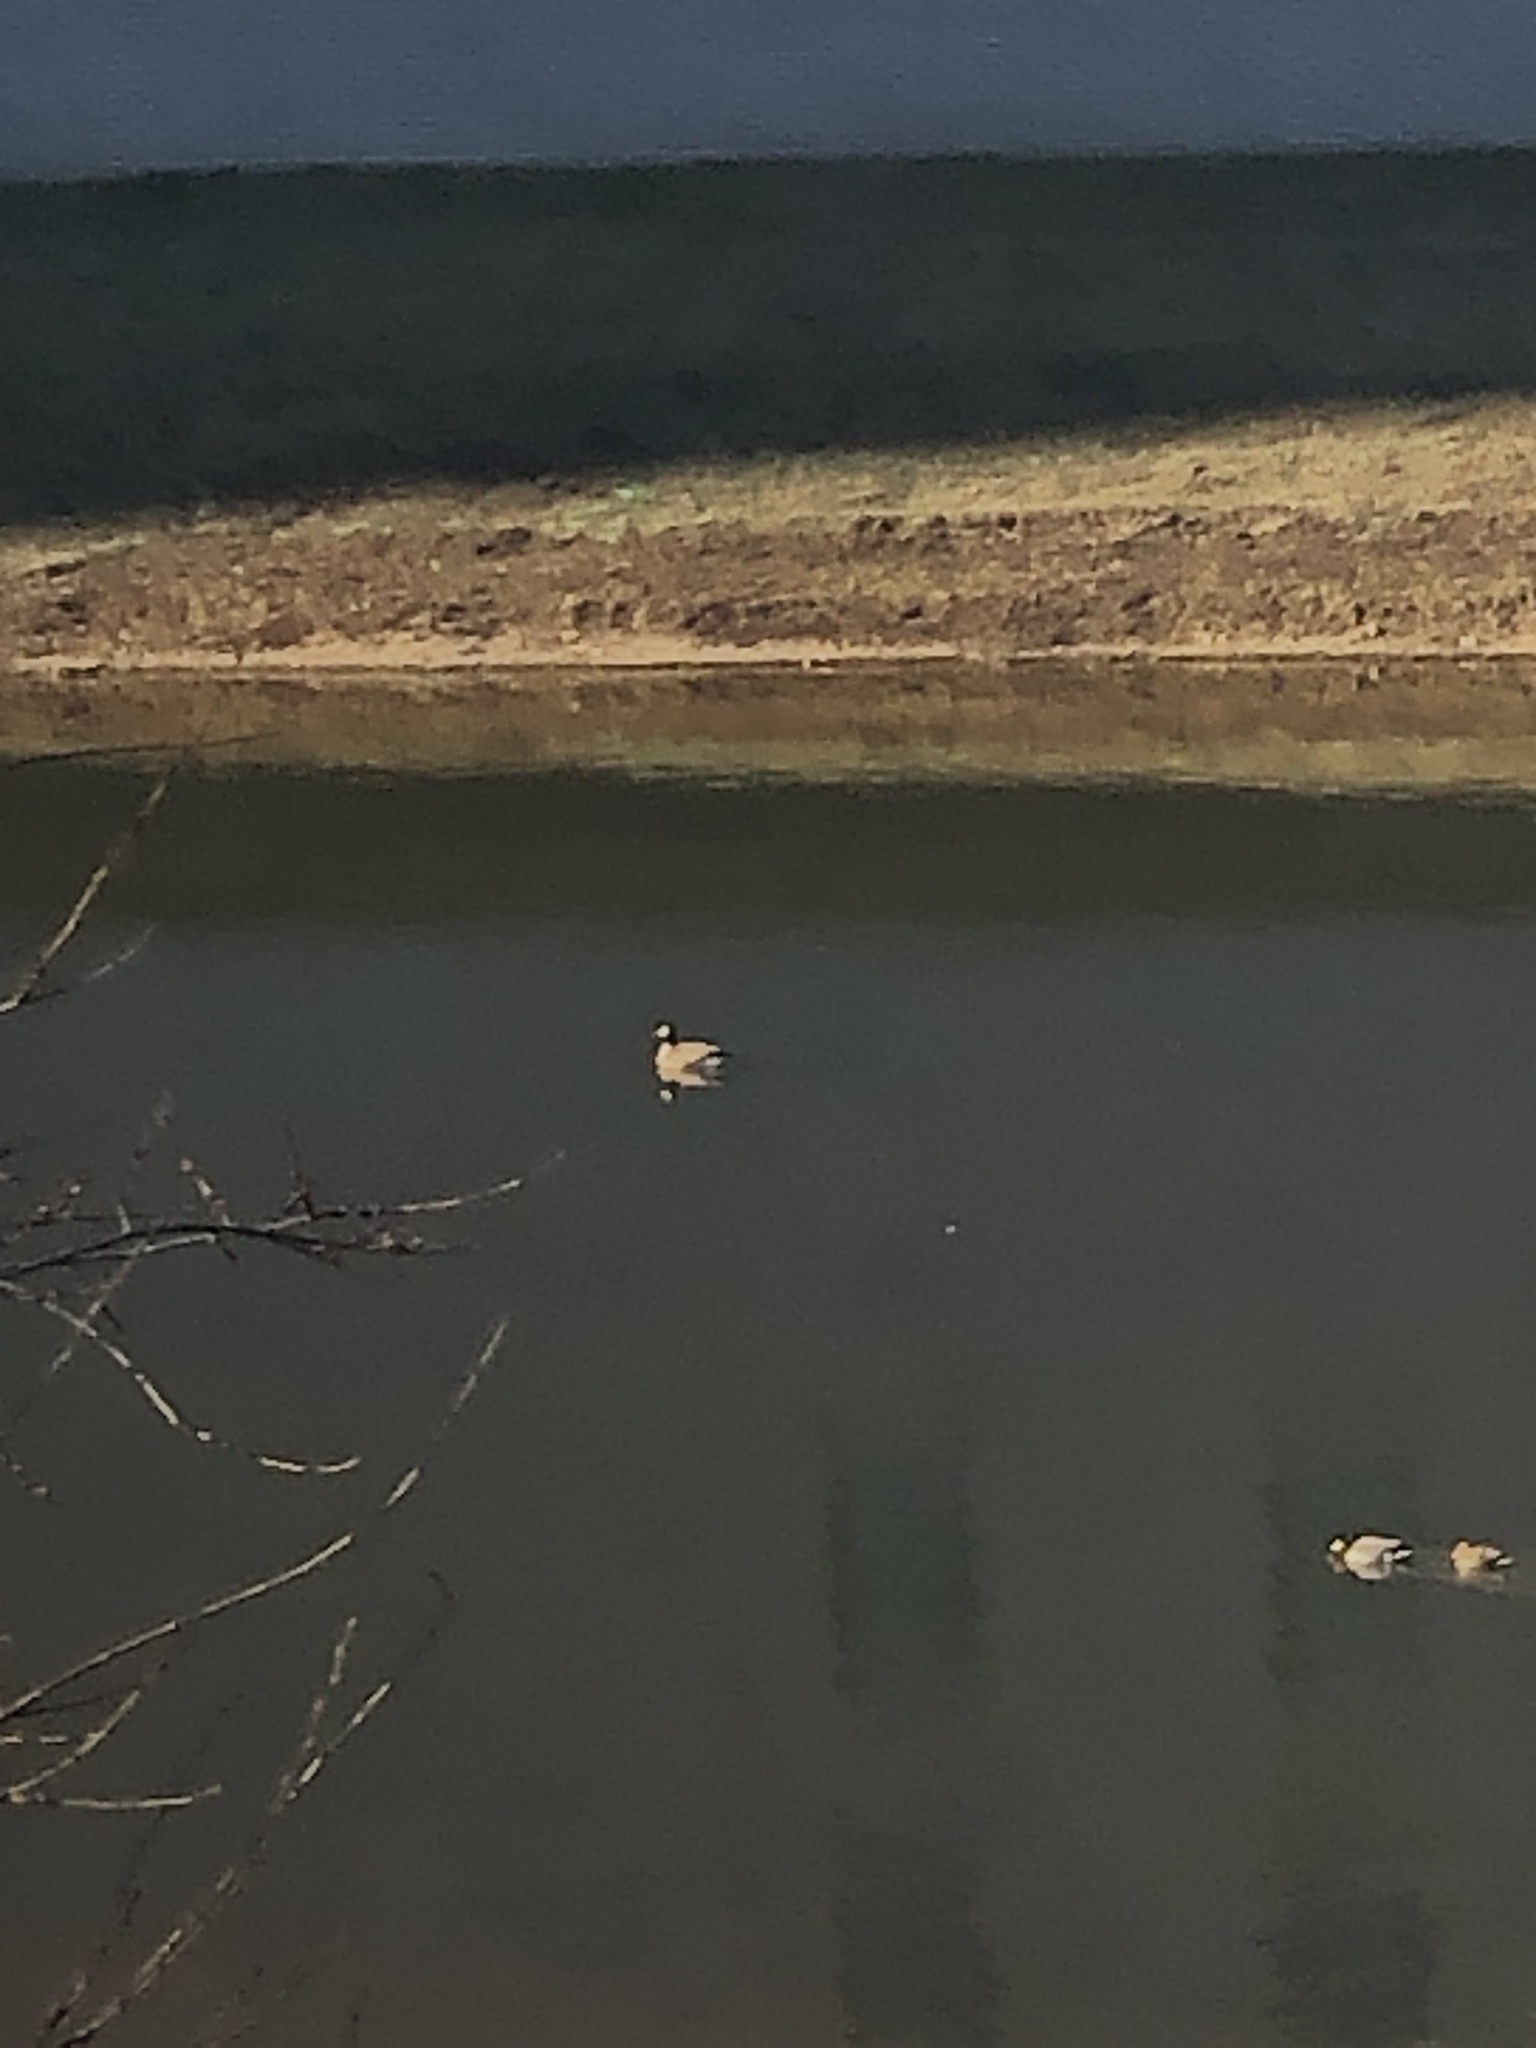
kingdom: Animalia
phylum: Chordata
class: Aves
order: Anseriformes
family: Anatidae
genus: Branta
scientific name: Branta canadensis
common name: Canada goose
